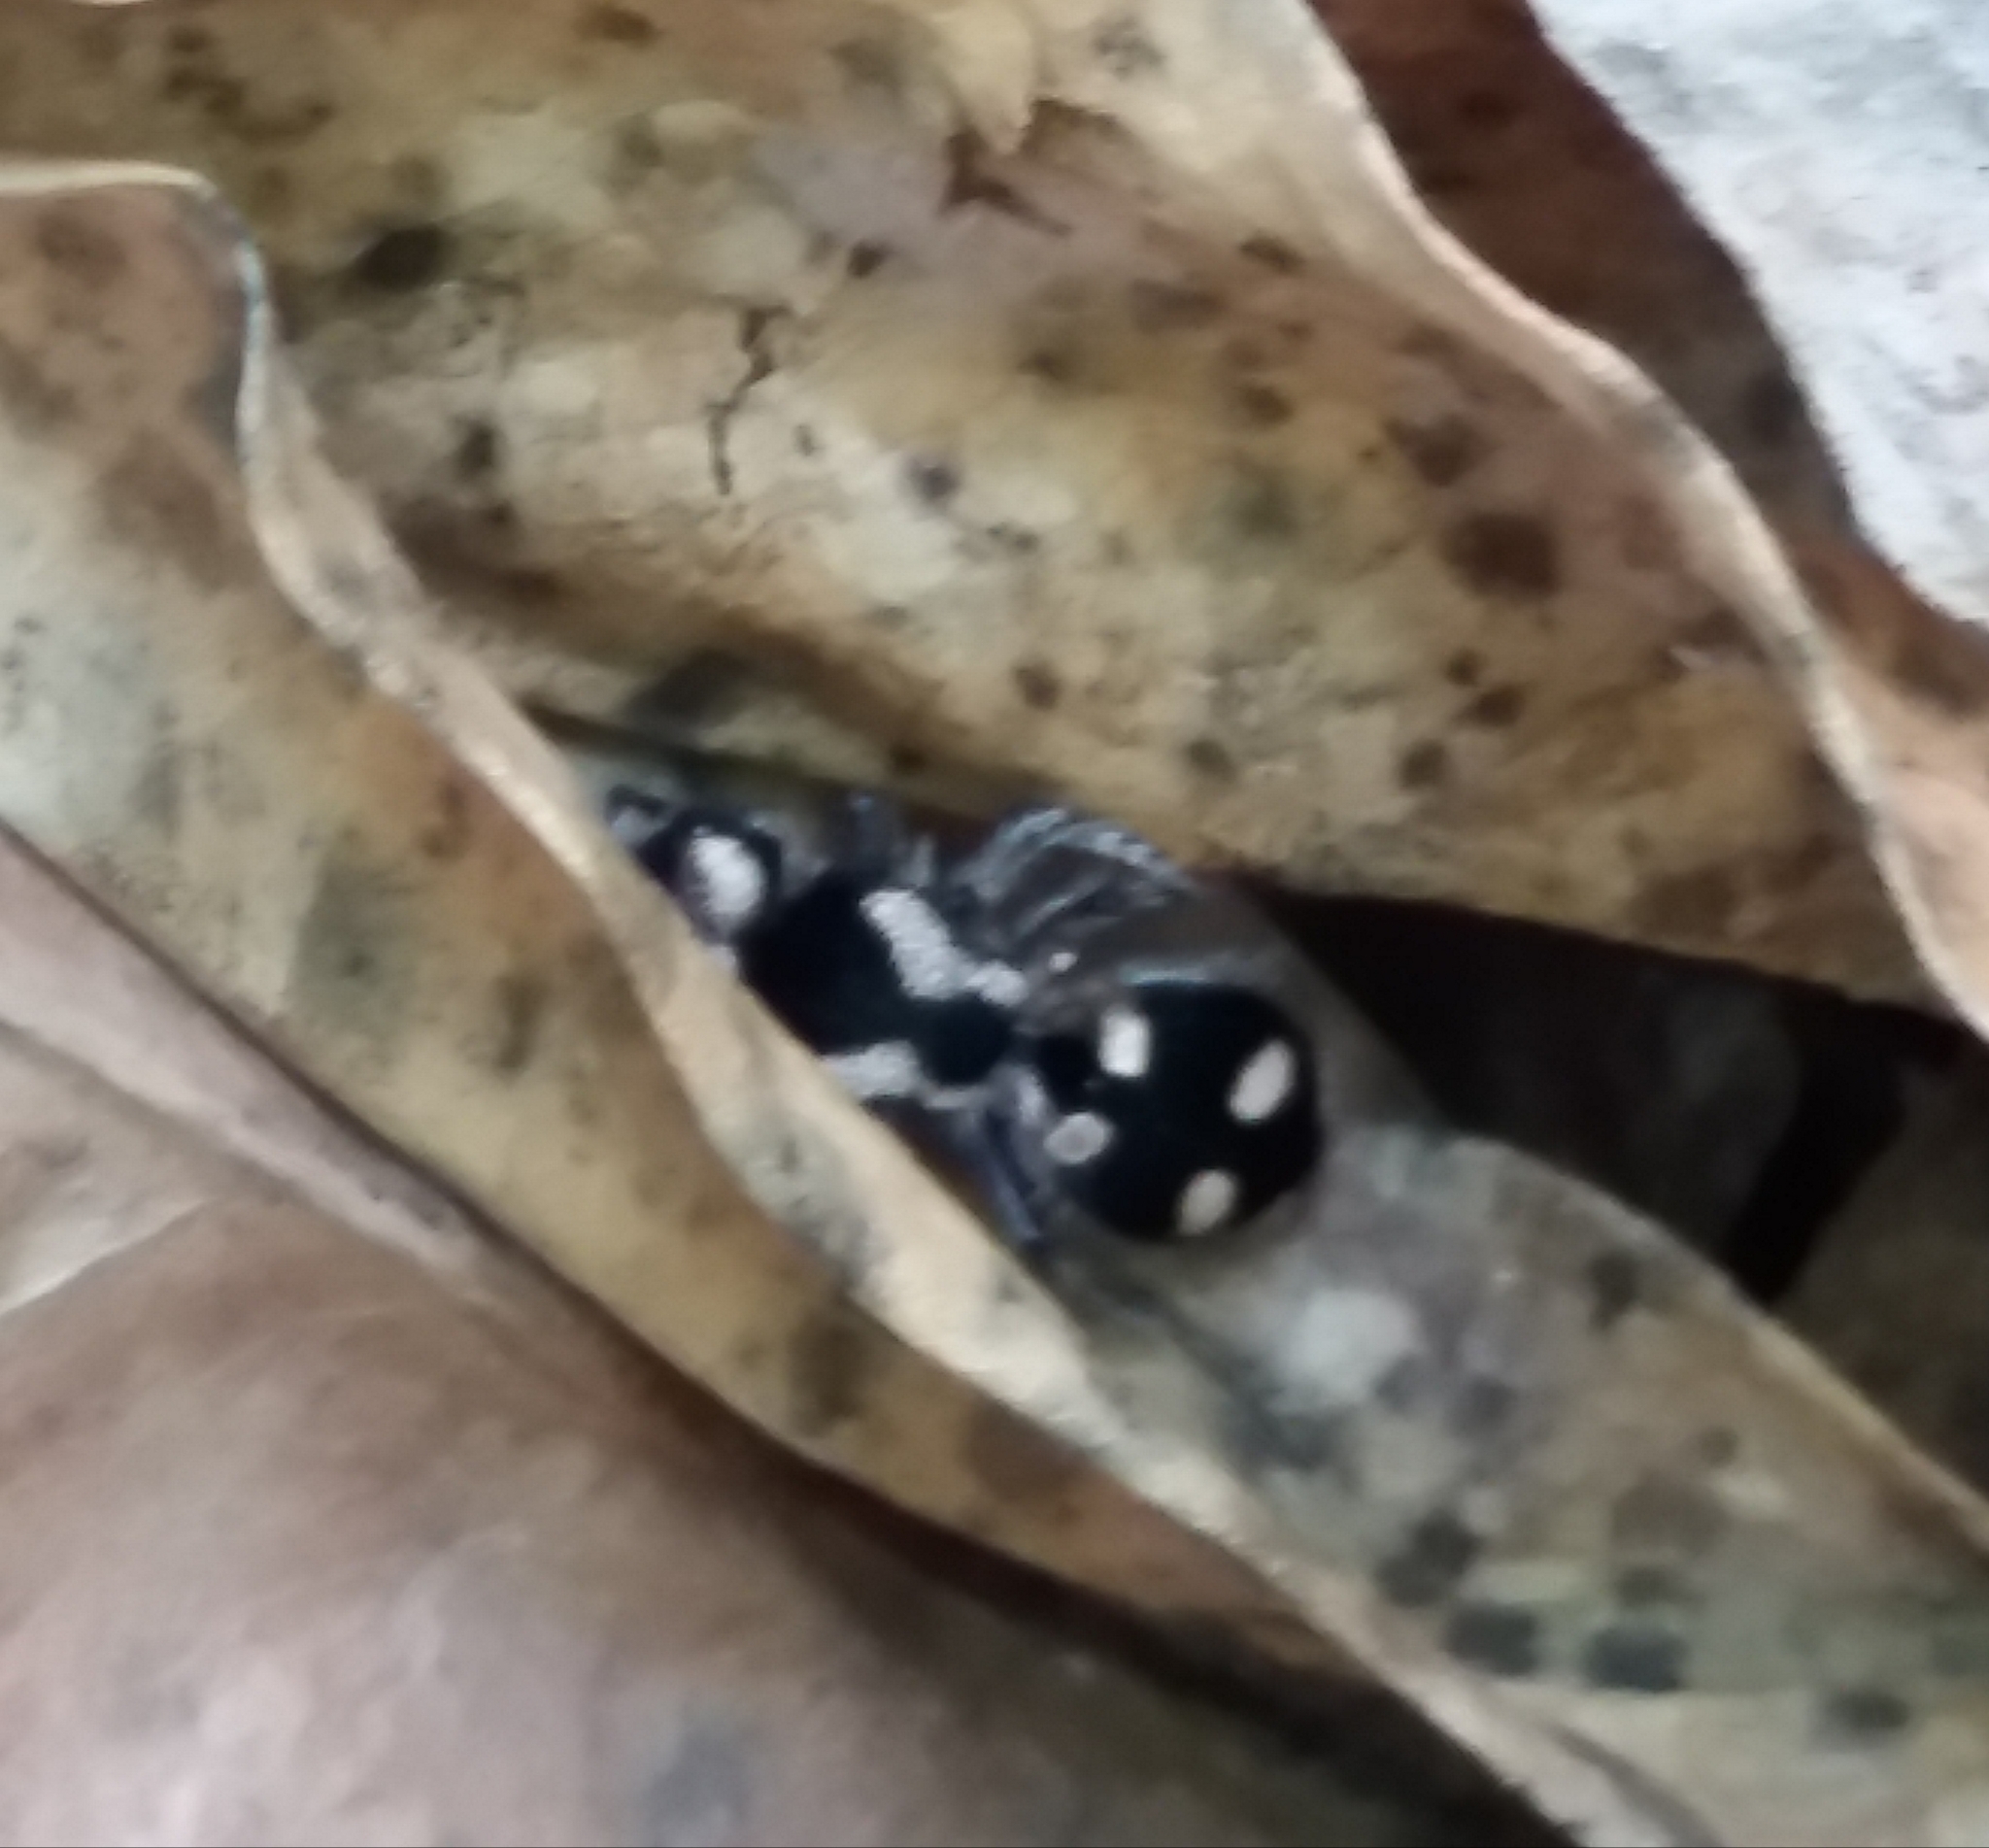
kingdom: Animalia
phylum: Arthropoda
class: Insecta
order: Hymenoptera
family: Mutillidae
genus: Hoplomutilla
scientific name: Hoplomutilla
